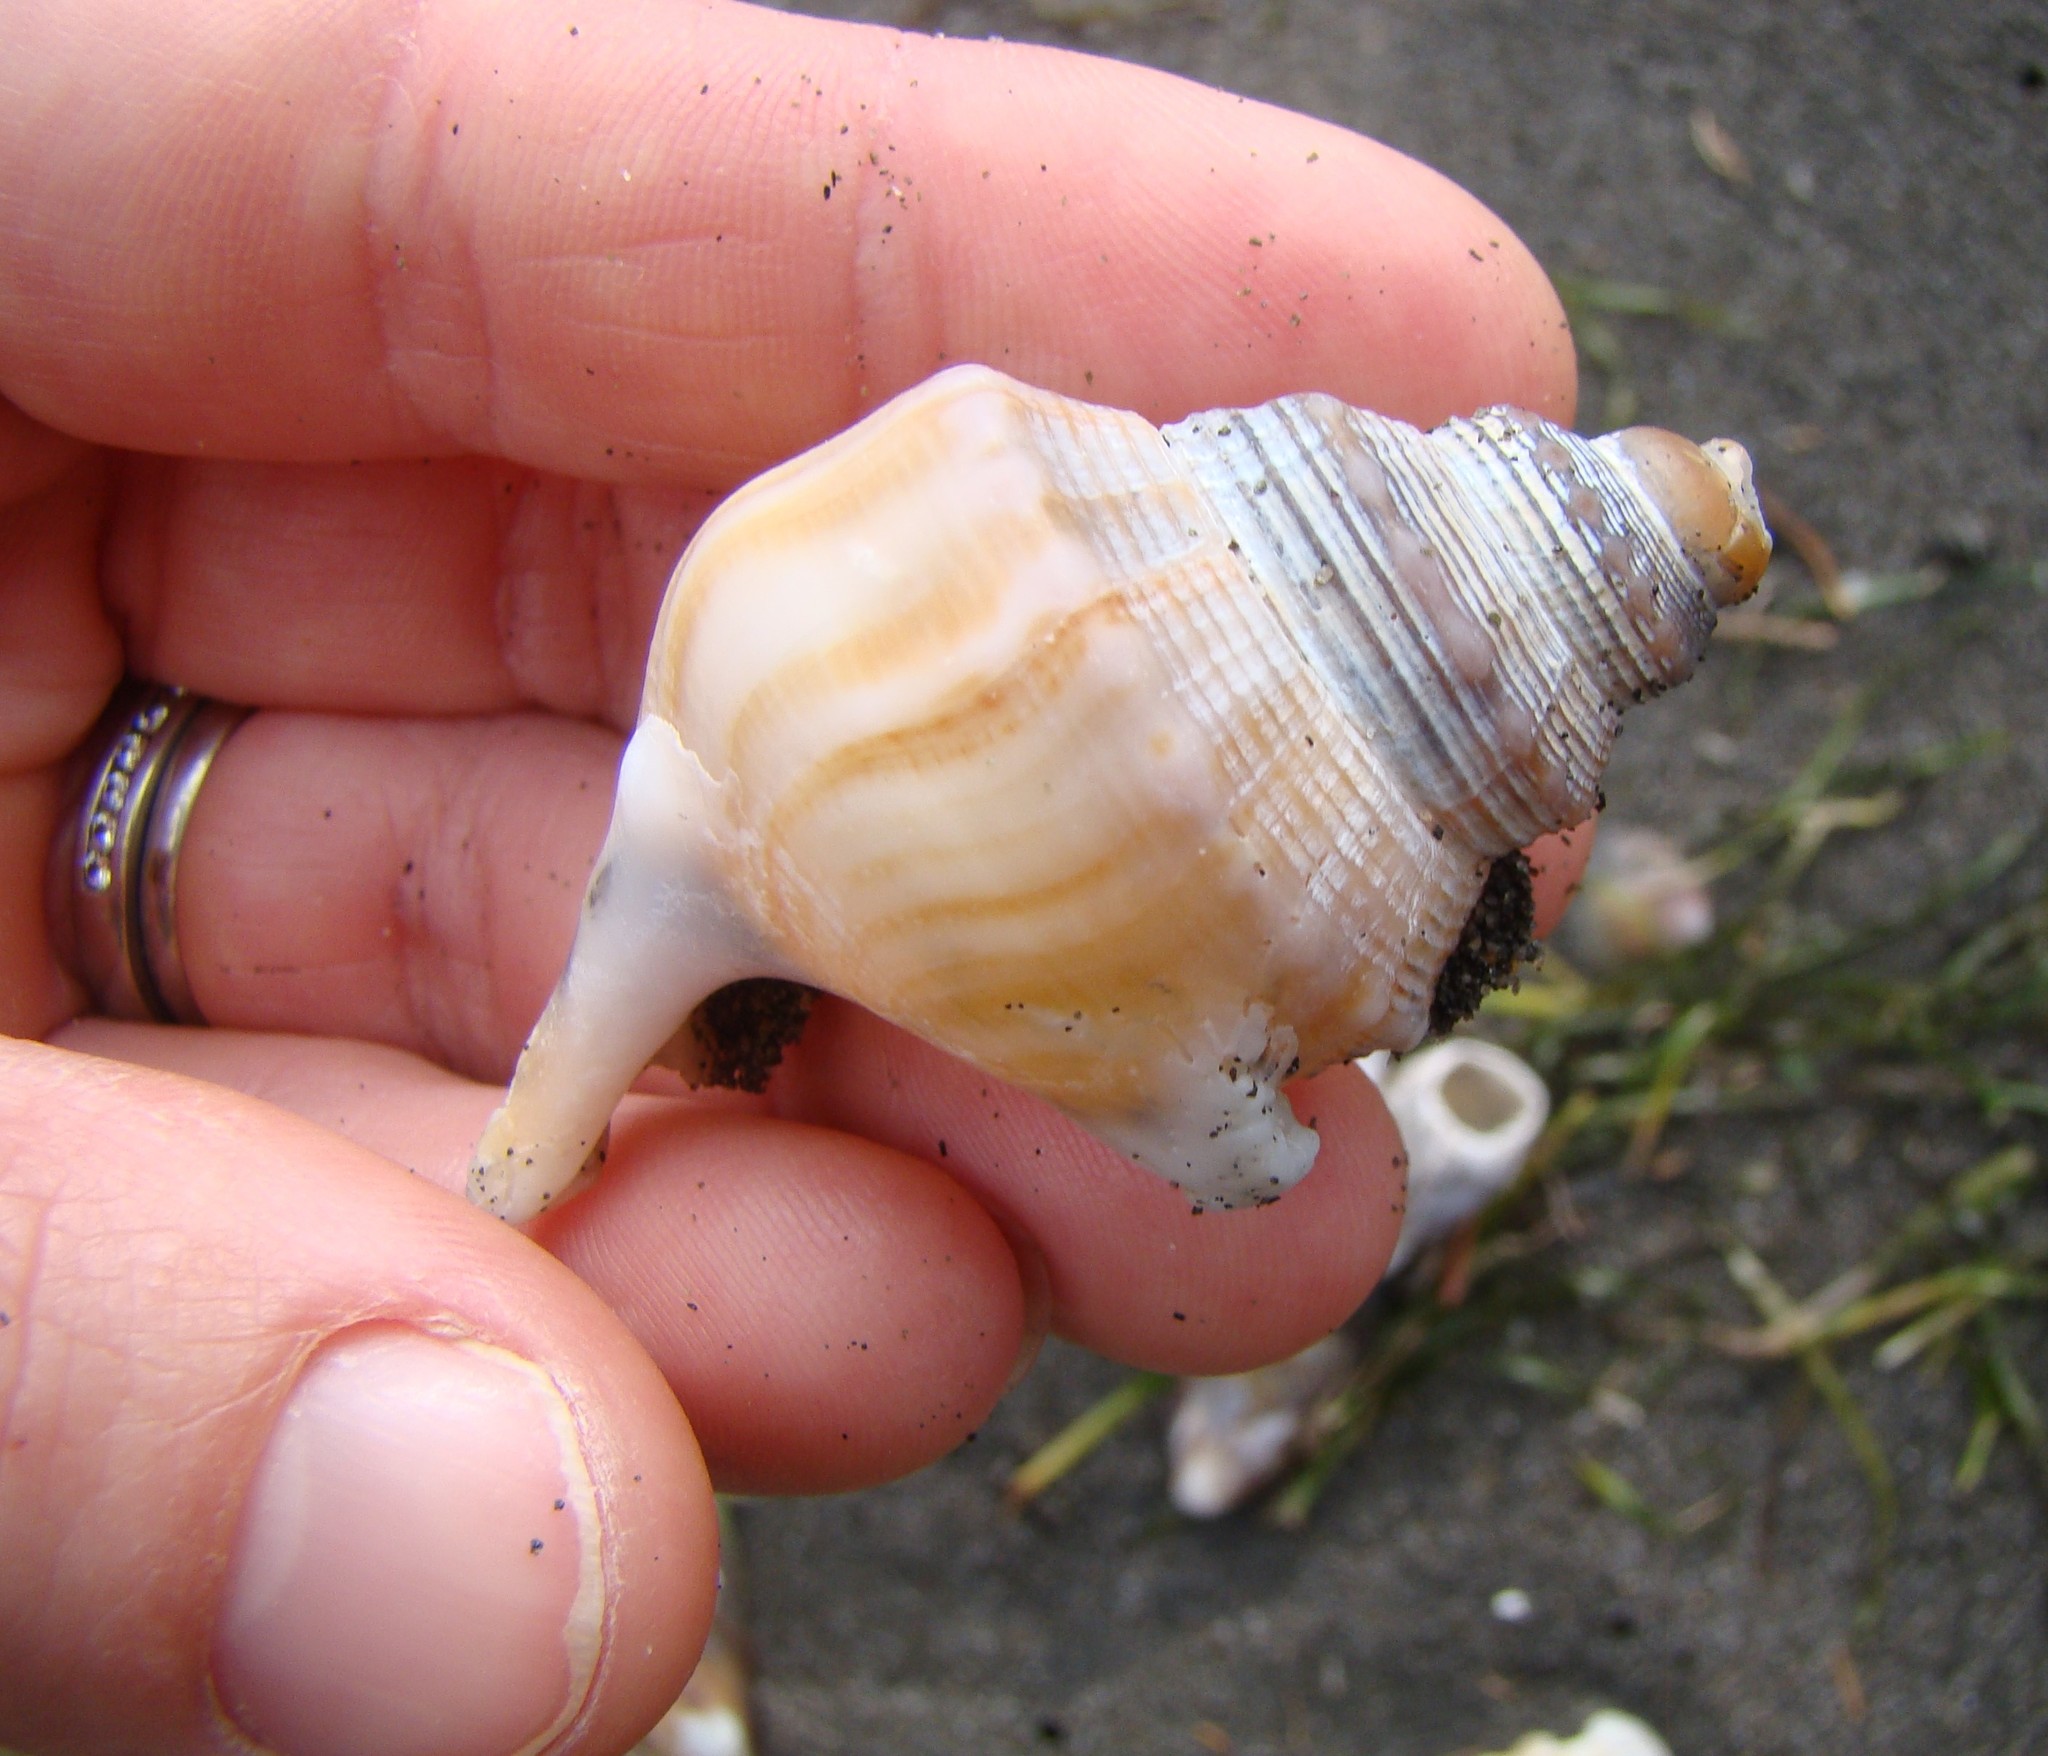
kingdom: Animalia
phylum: Mollusca
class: Gastropoda
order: Littorinimorpha
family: Struthiolariidae
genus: Struthiolaria
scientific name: Struthiolaria papulosa
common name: Large ostrich foot
